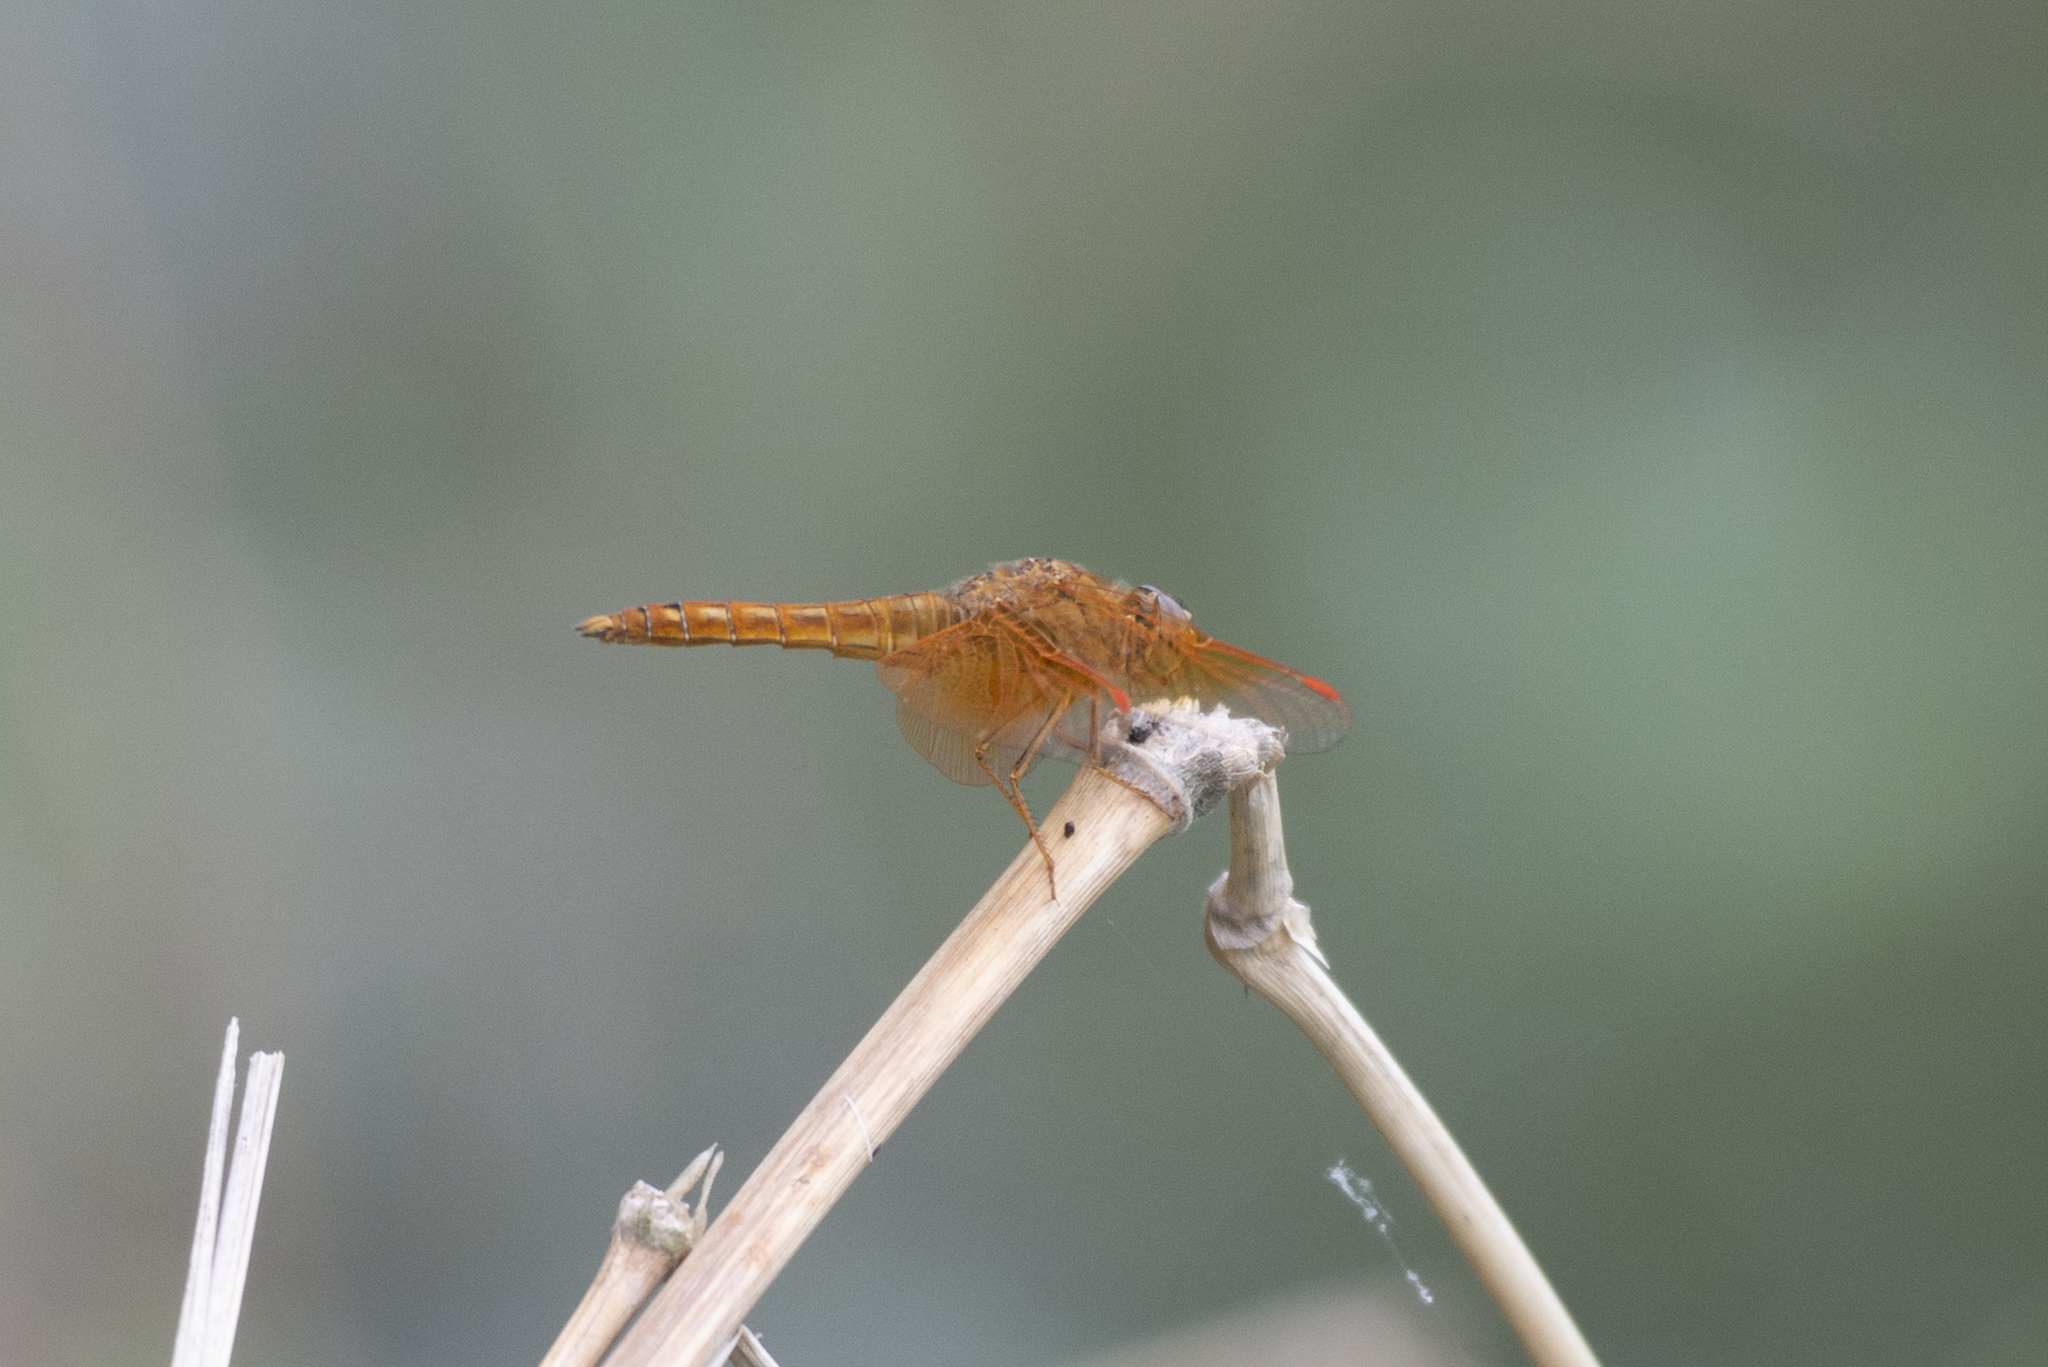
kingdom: Animalia
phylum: Arthropoda
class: Insecta
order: Odonata
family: Libellulidae
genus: Brachythemis
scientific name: Brachythemis contaminata
